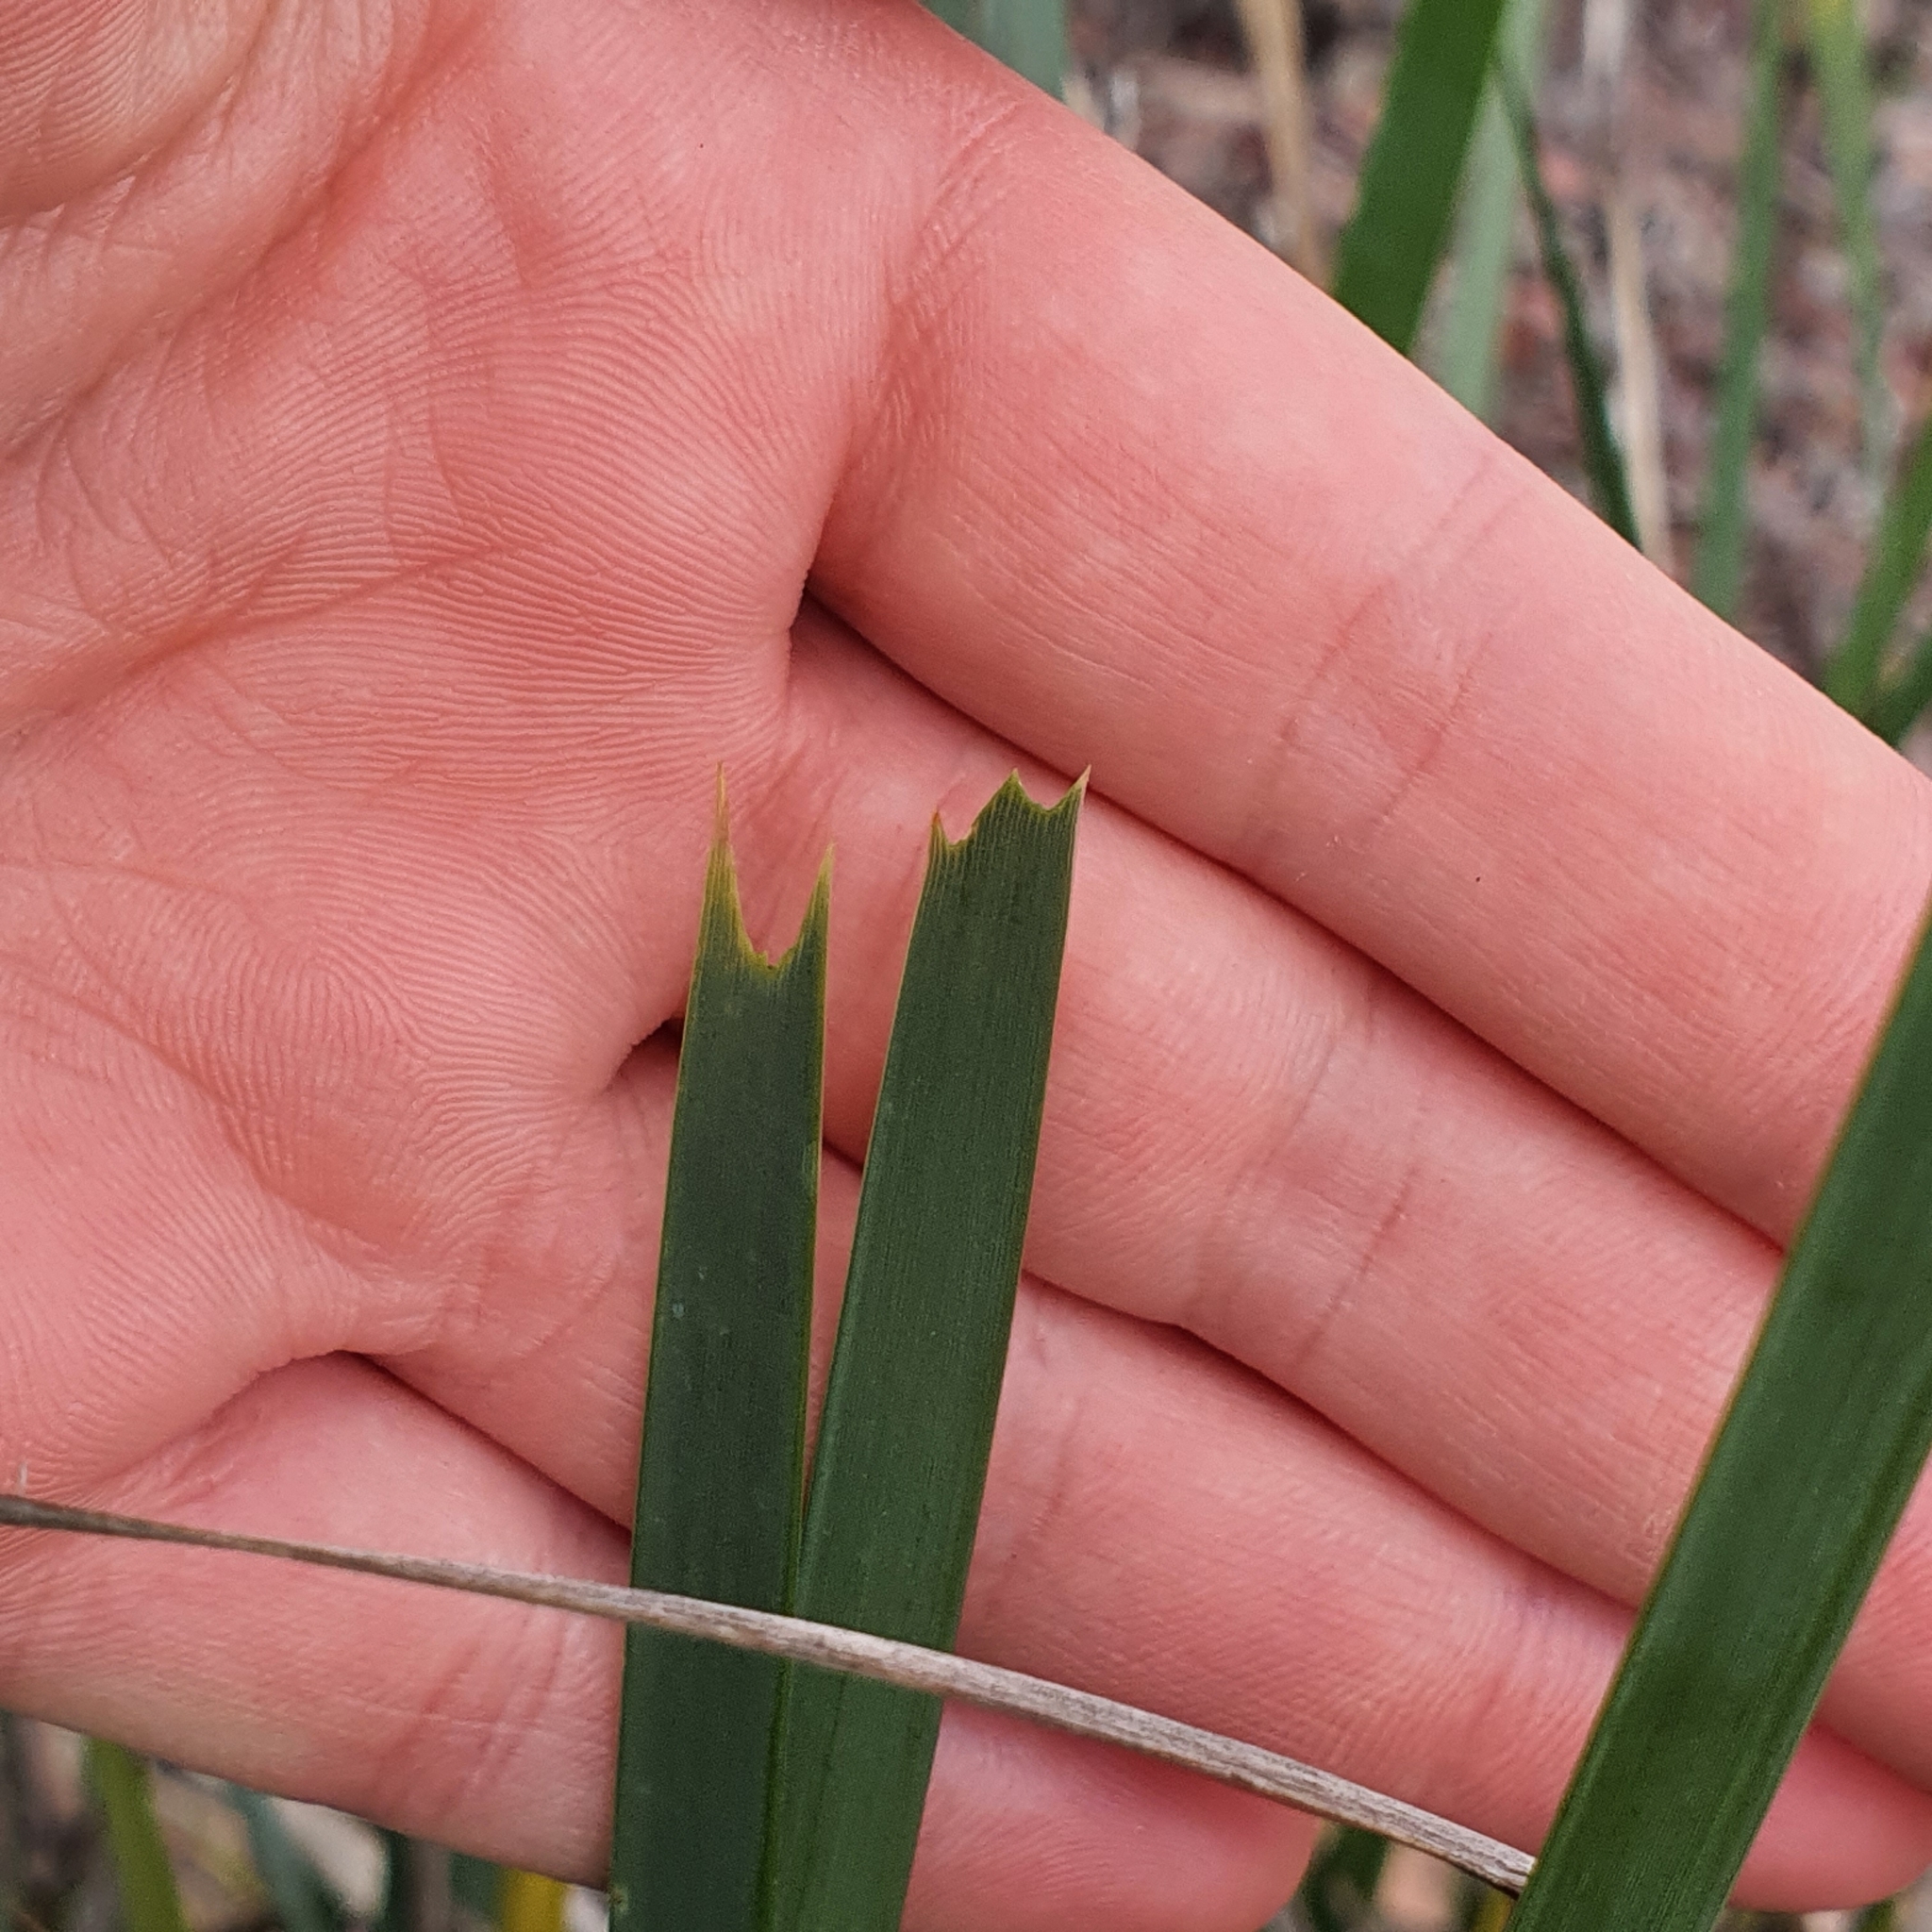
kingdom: Plantae
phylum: Tracheophyta
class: Liliopsida
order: Asparagales
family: Asparagaceae
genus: Lomandra
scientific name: Lomandra longifolia
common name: Longleaf mat-rush
